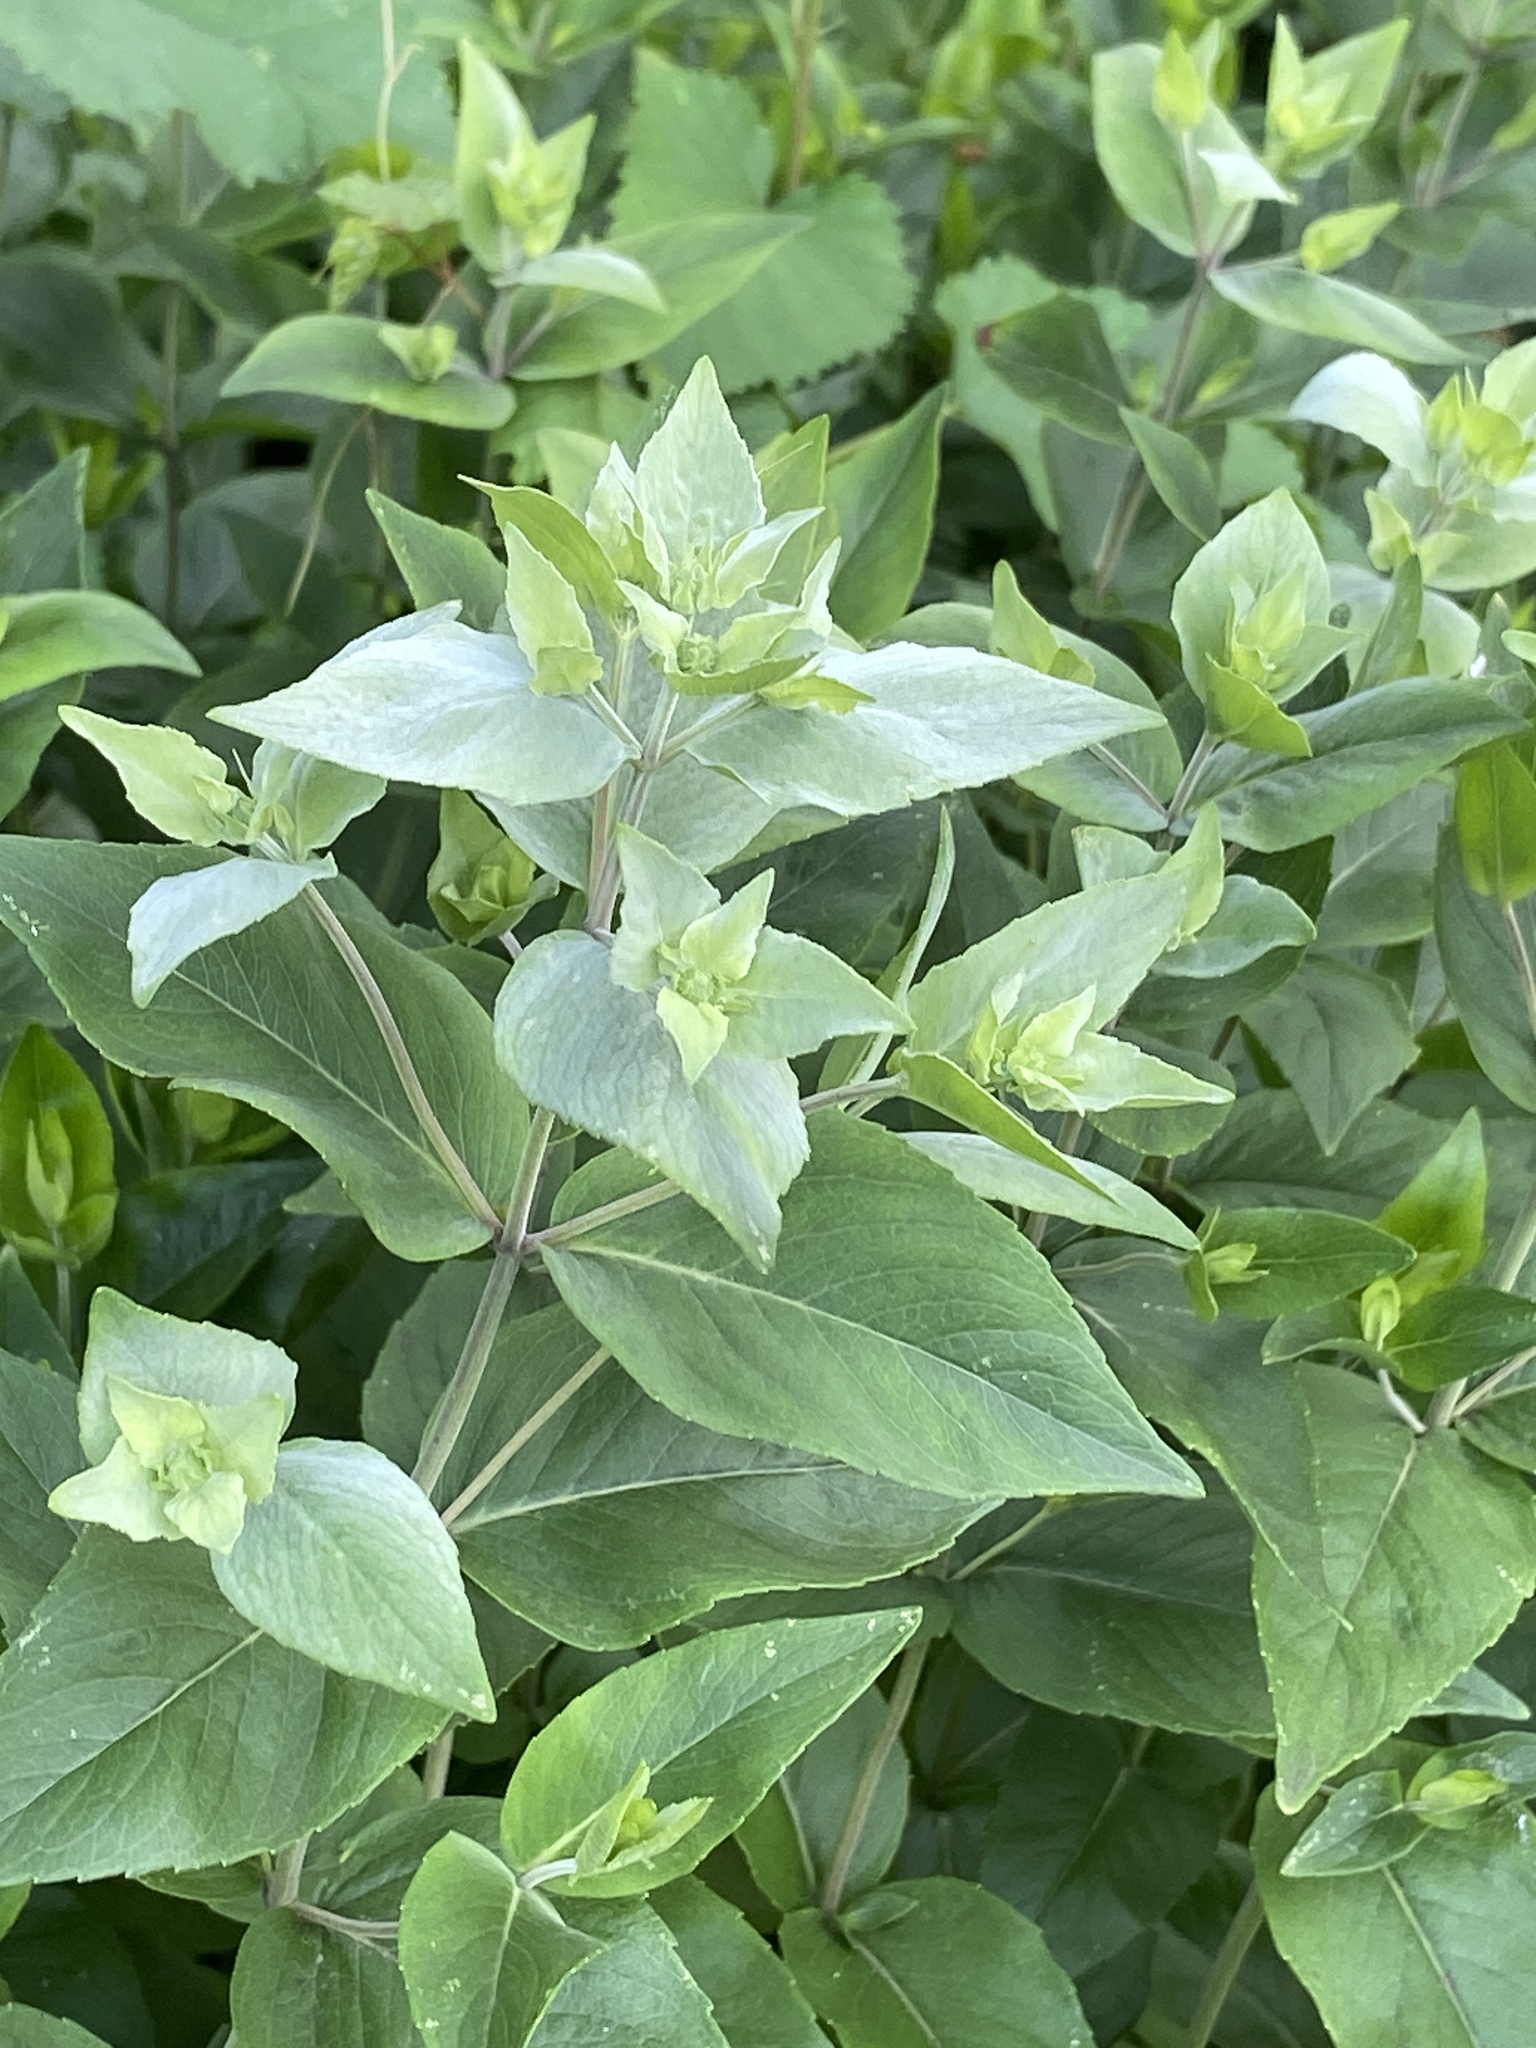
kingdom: Plantae
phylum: Tracheophyta
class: Magnoliopsida
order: Lamiales
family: Lamiaceae
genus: Pycnanthemum
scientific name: Pycnanthemum muticum
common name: Blunt mountain-mint
